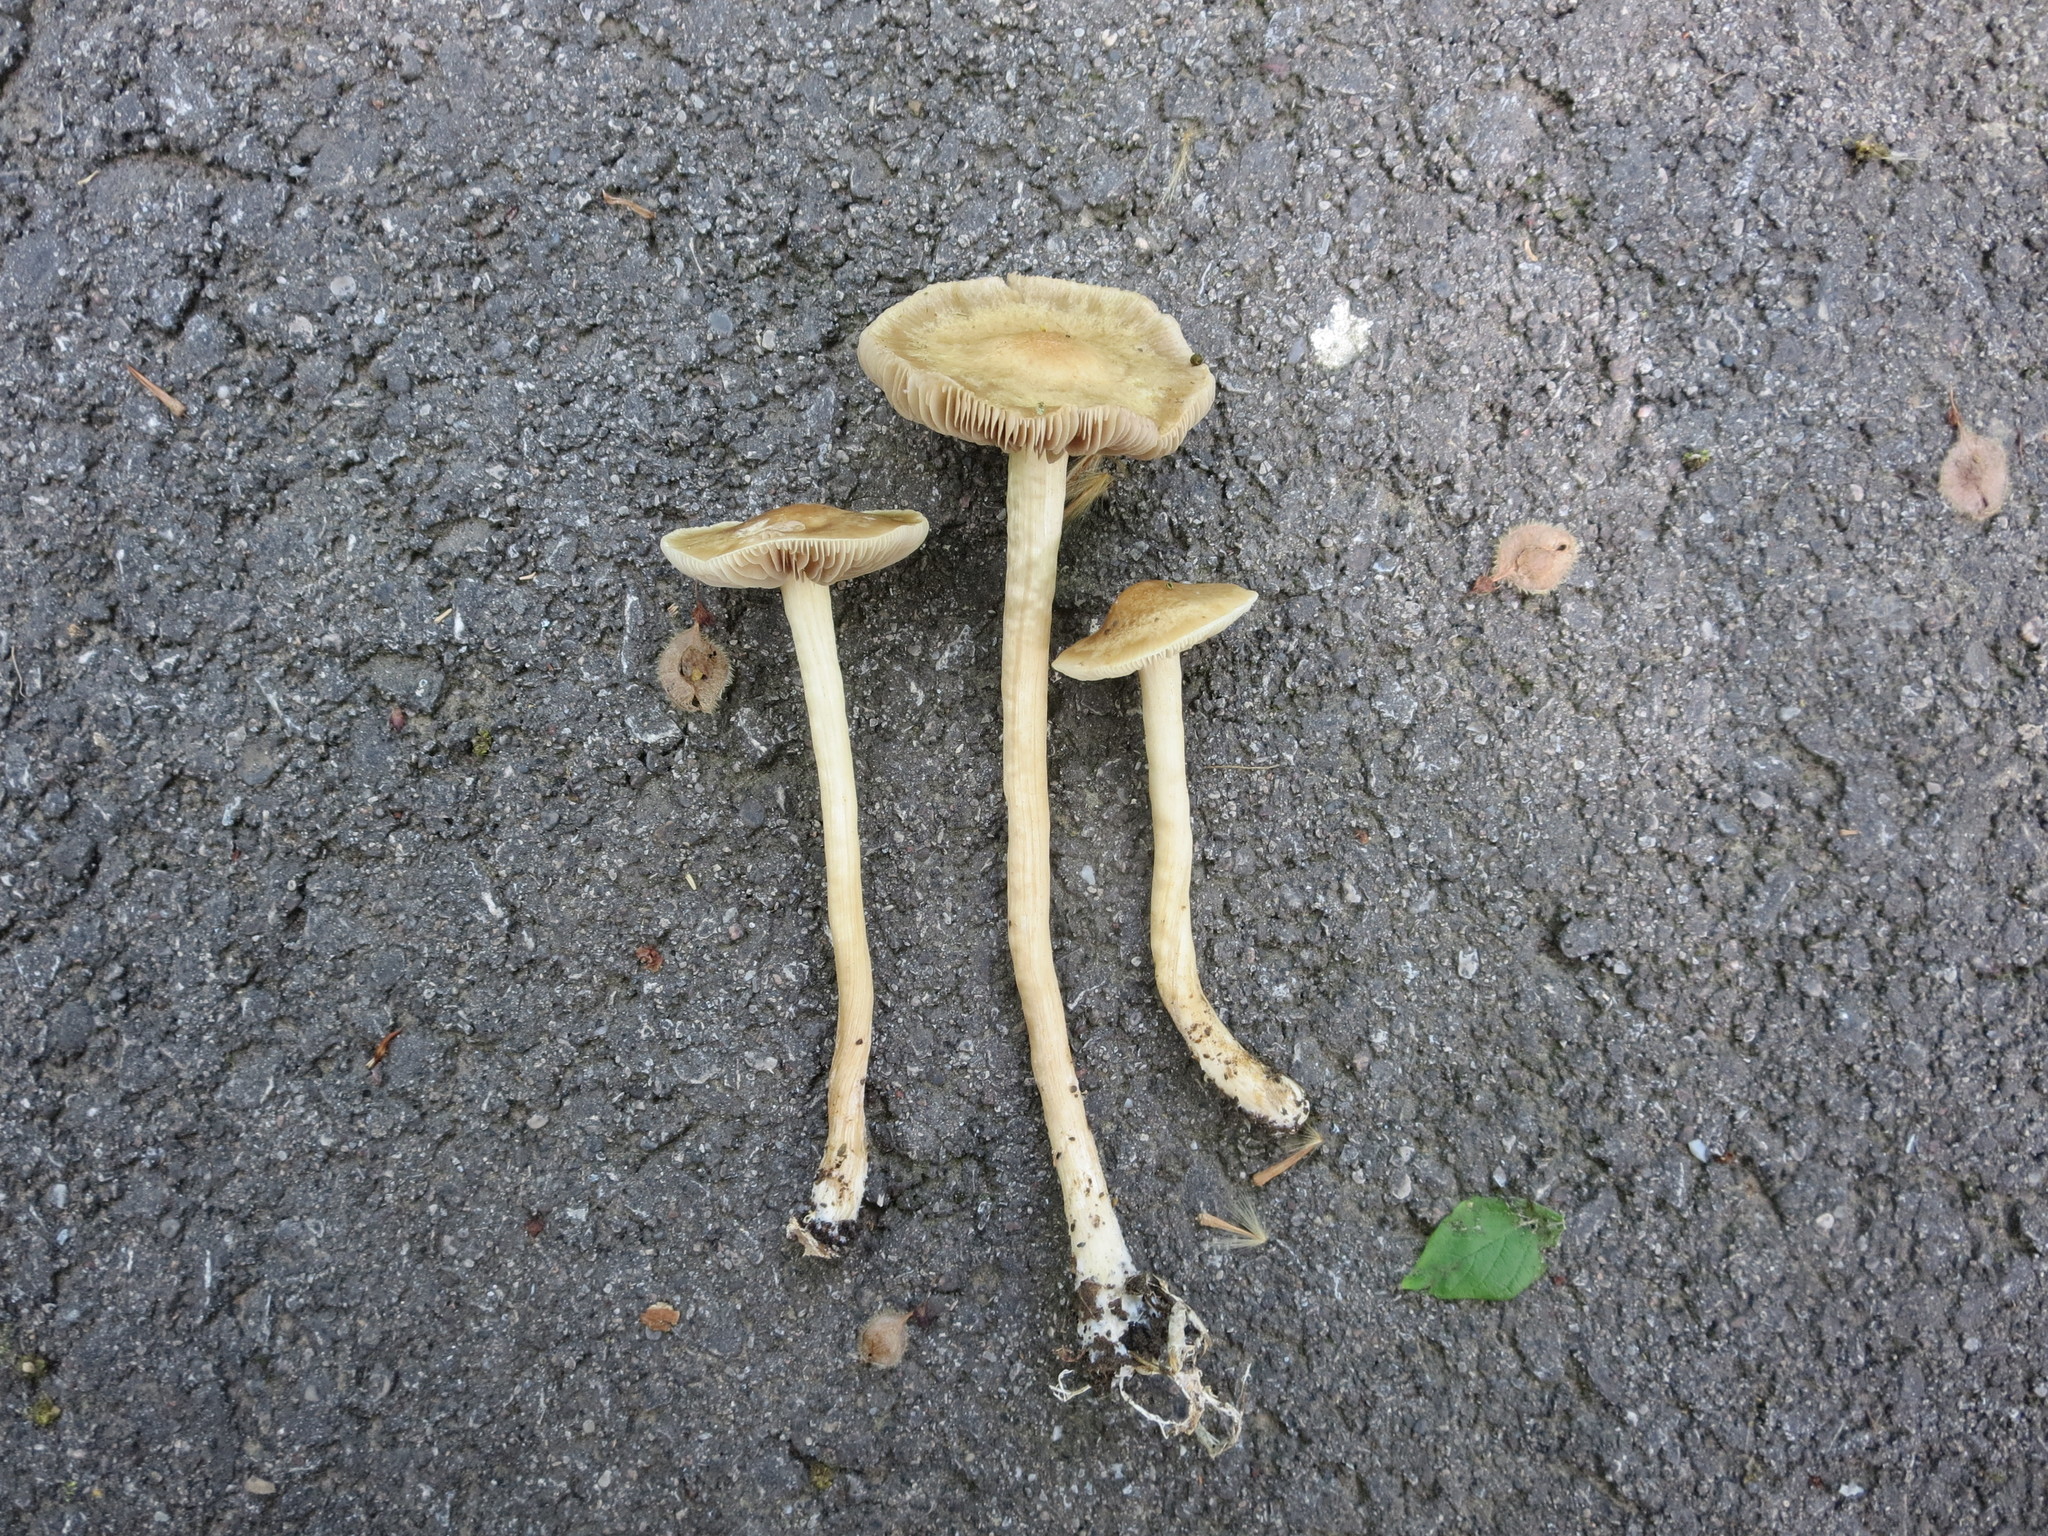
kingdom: Fungi
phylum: Basidiomycota
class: Agaricomycetes
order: Agaricales
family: Strophariaceae
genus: Agrocybe
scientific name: Agrocybe pediades
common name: Common fieldcap
